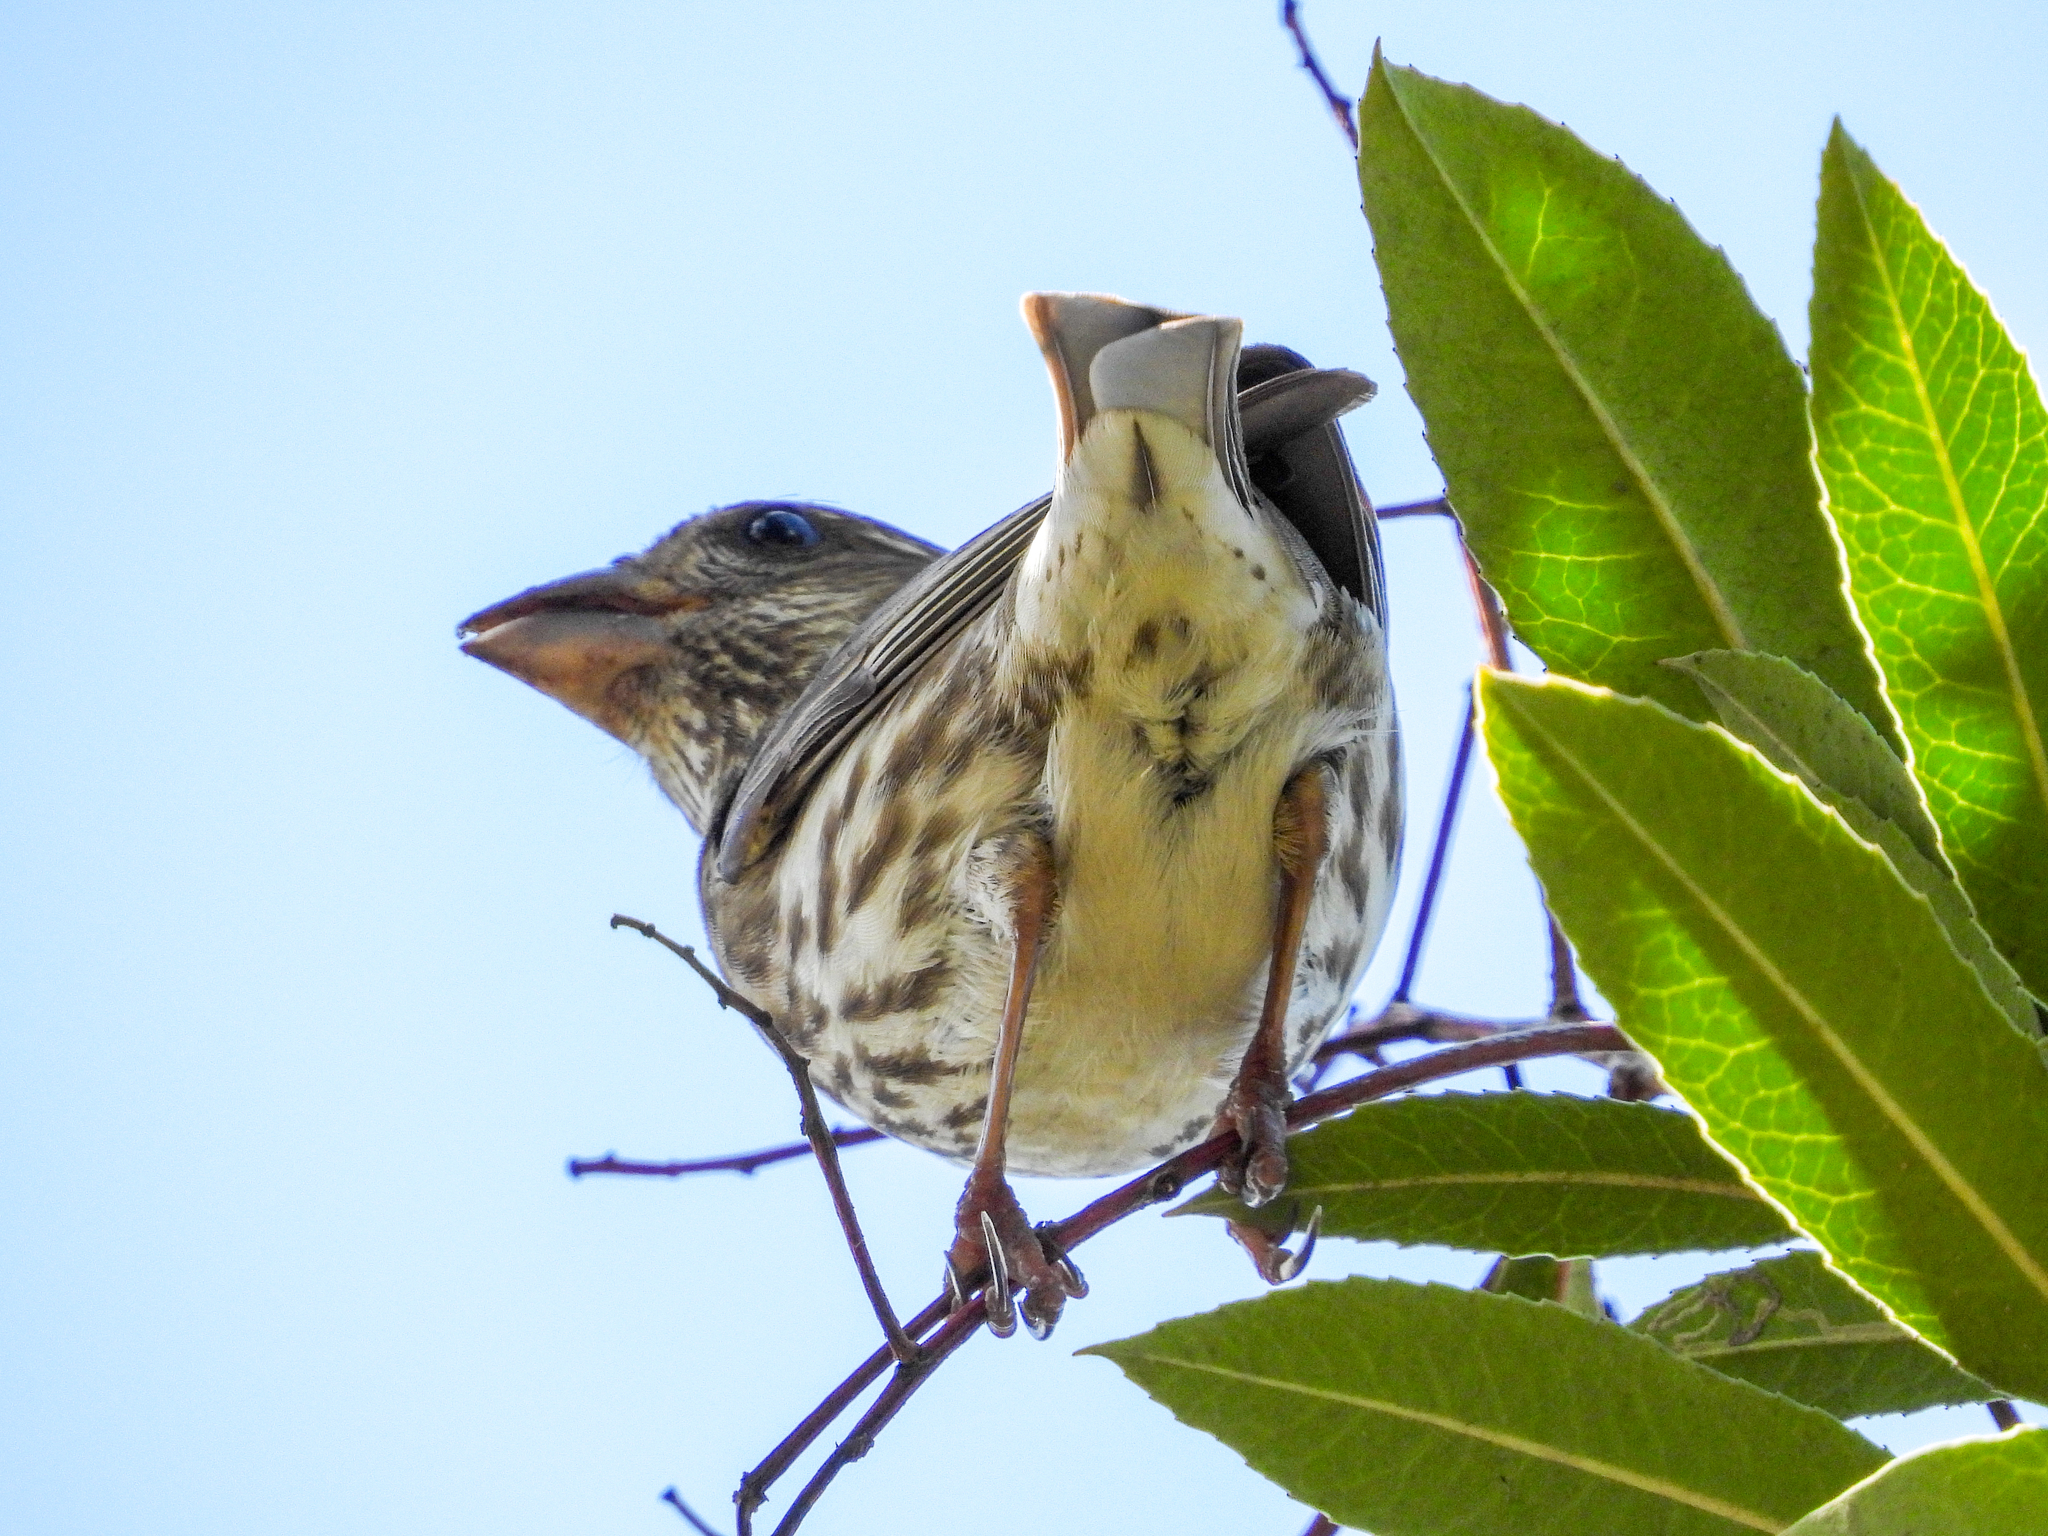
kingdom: Animalia
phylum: Chordata
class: Aves
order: Passeriformes
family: Fringillidae
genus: Haemorhous
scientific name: Haemorhous purpureus
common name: Purple finch
